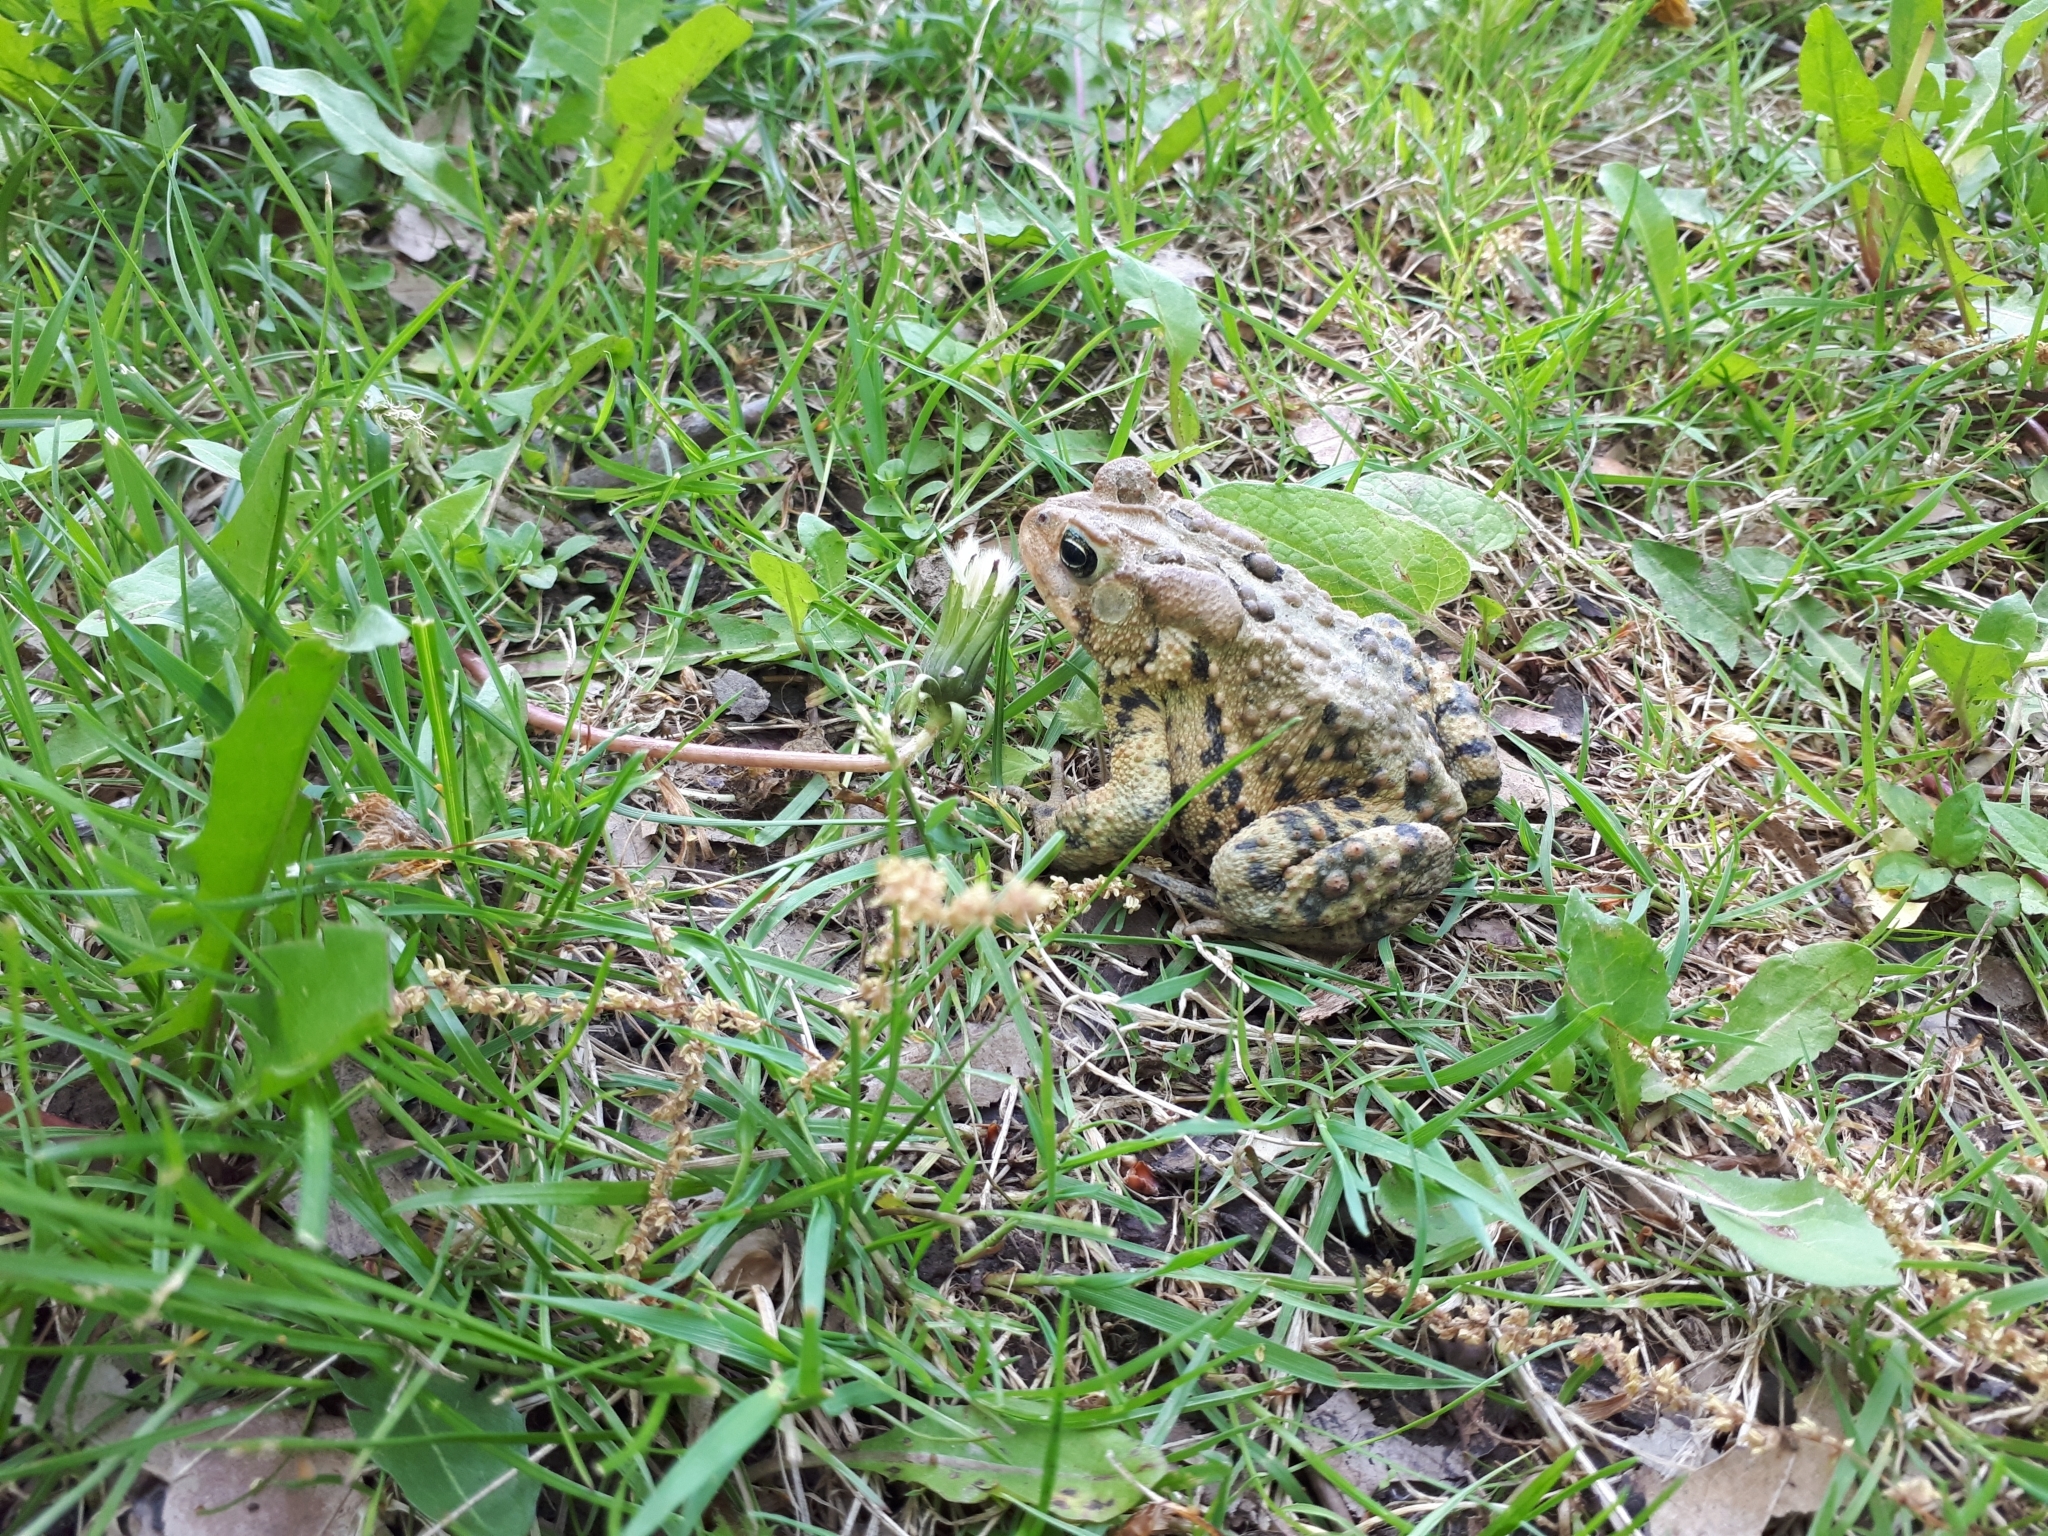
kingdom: Animalia
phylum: Chordata
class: Amphibia
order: Anura
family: Bufonidae
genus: Anaxyrus
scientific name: Anaxyrus americanus
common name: American toad
